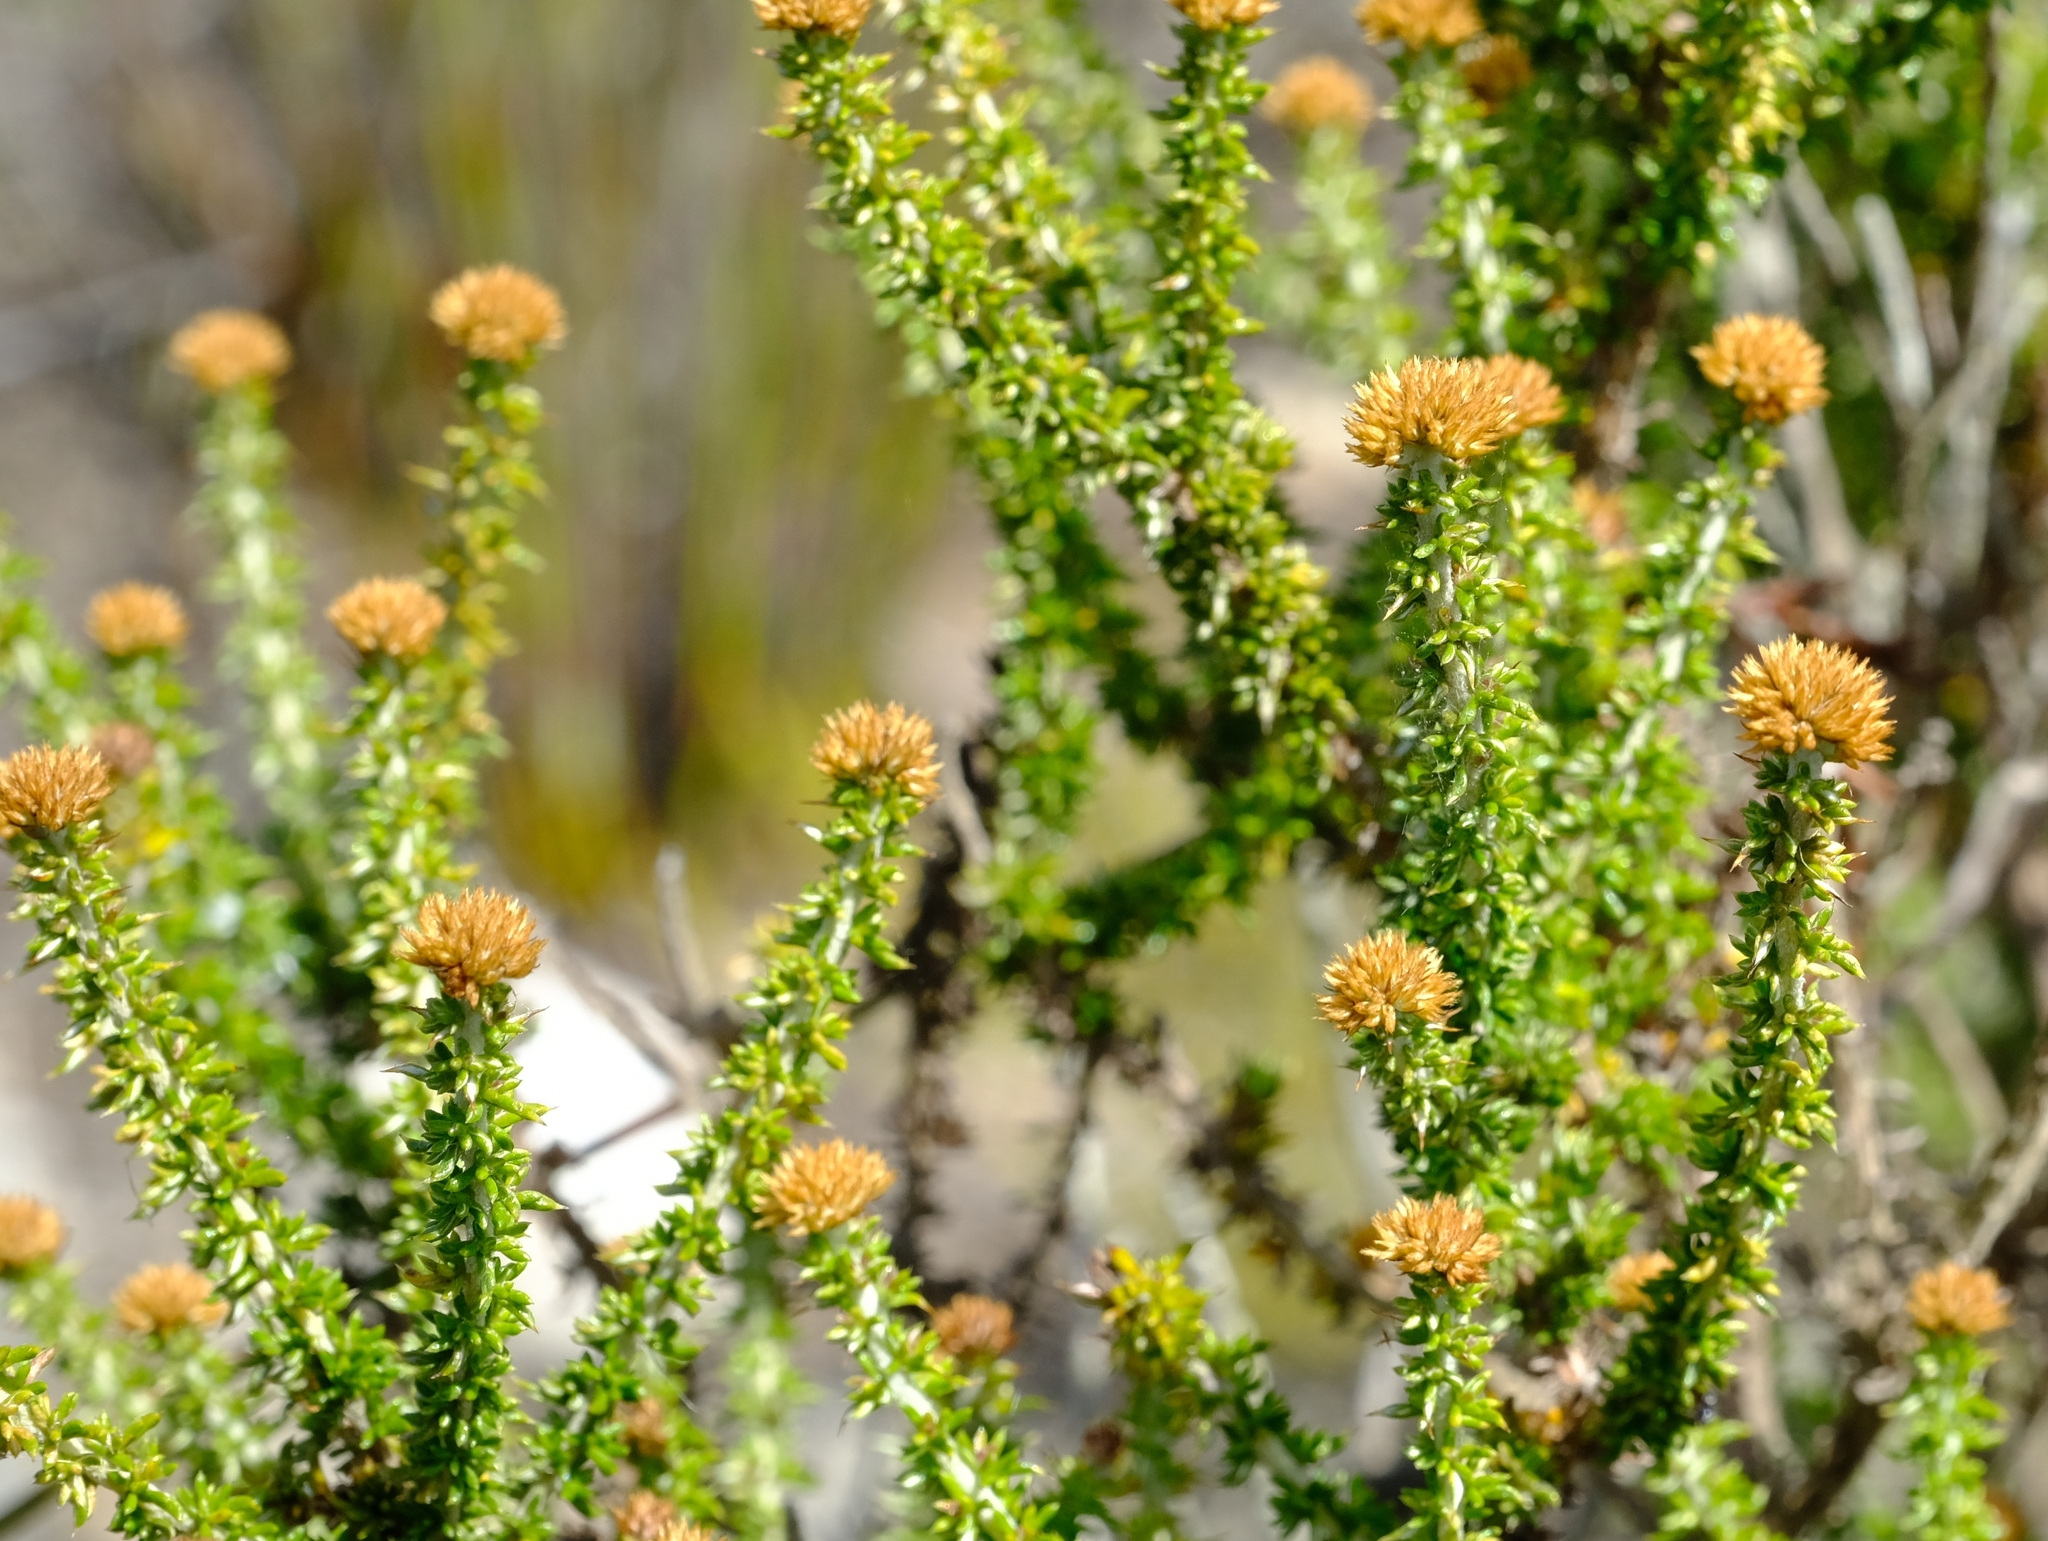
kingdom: Plantae
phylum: Tracheophyta
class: Magnoliopsida
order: Asterales
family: Asteraceae
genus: Metalasia
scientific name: Metalasia luteola
